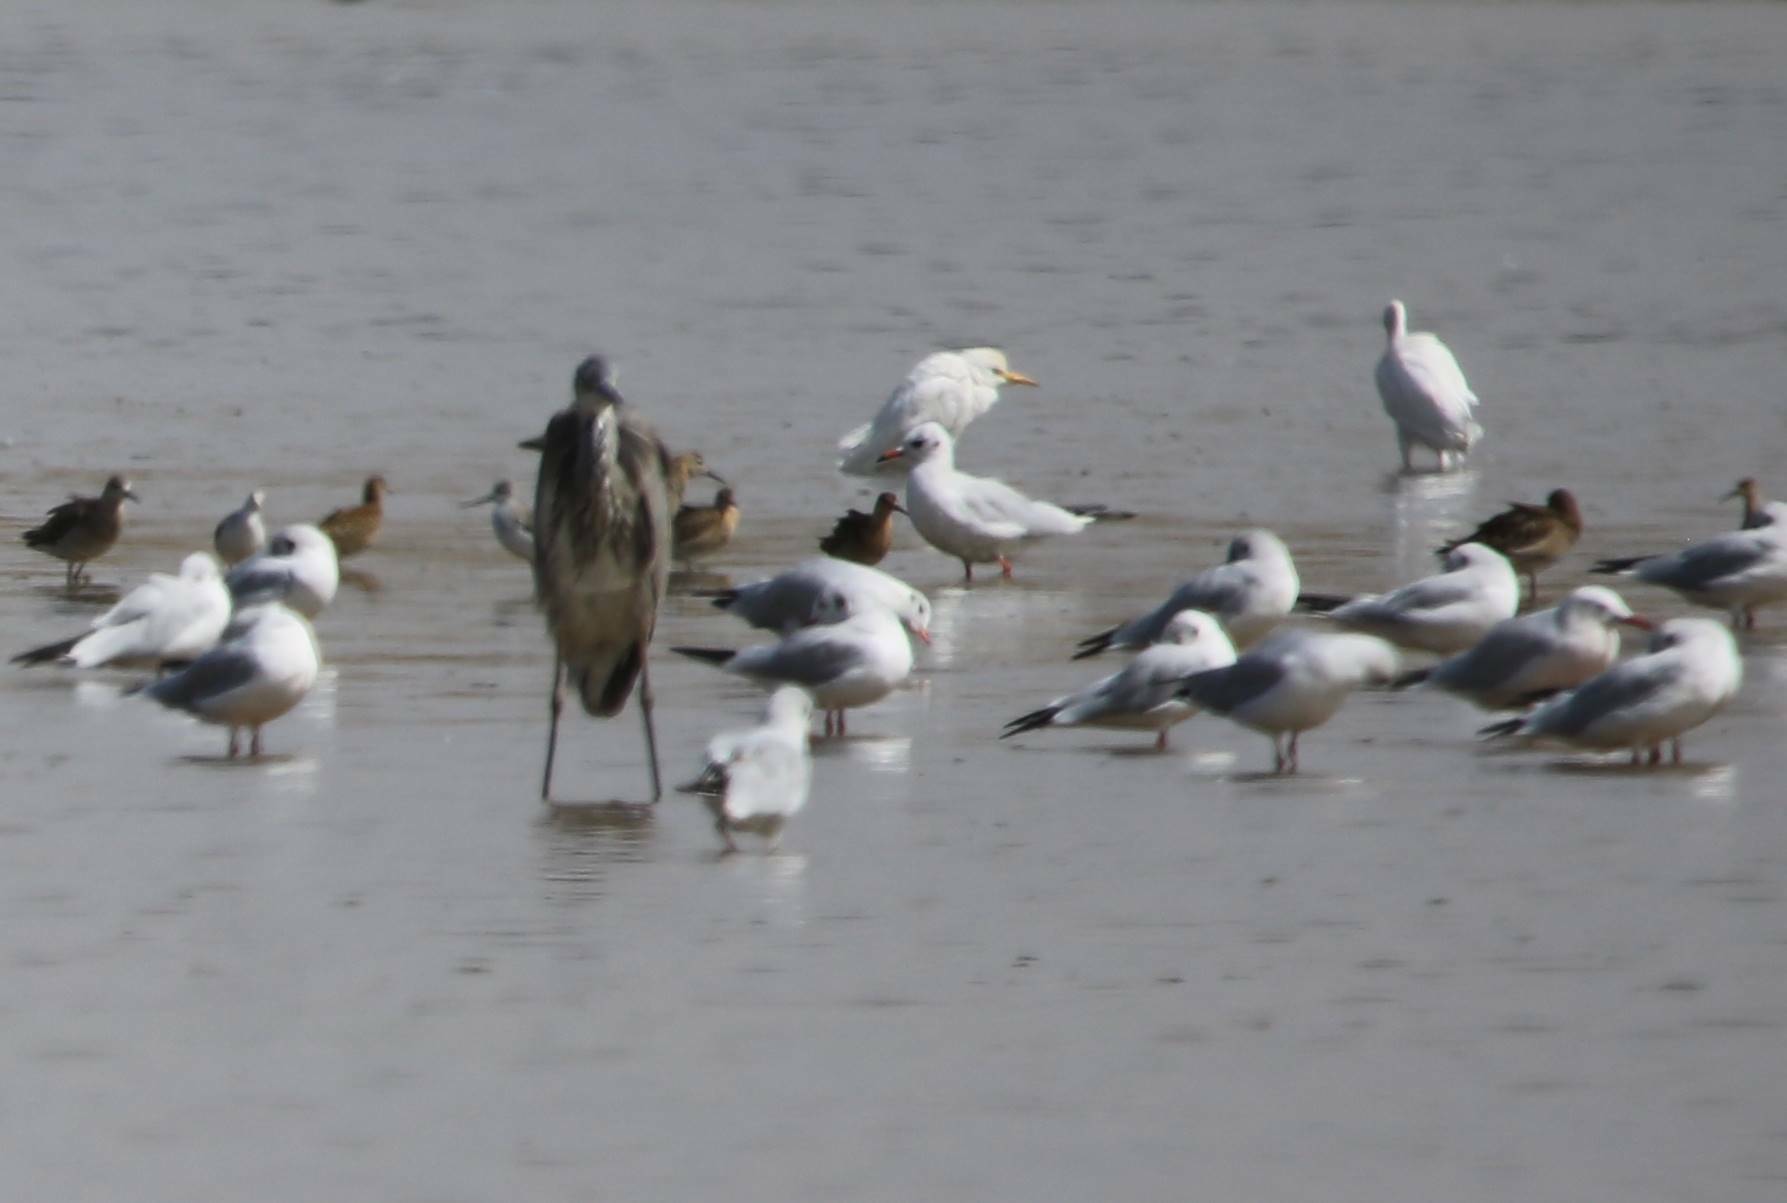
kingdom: Animalia
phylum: Chordata
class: Aves
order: Charadriiformes
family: Laridae
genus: Chroicocephalus
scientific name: Chroicocephalus ridibundus
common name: Black-headed gull
